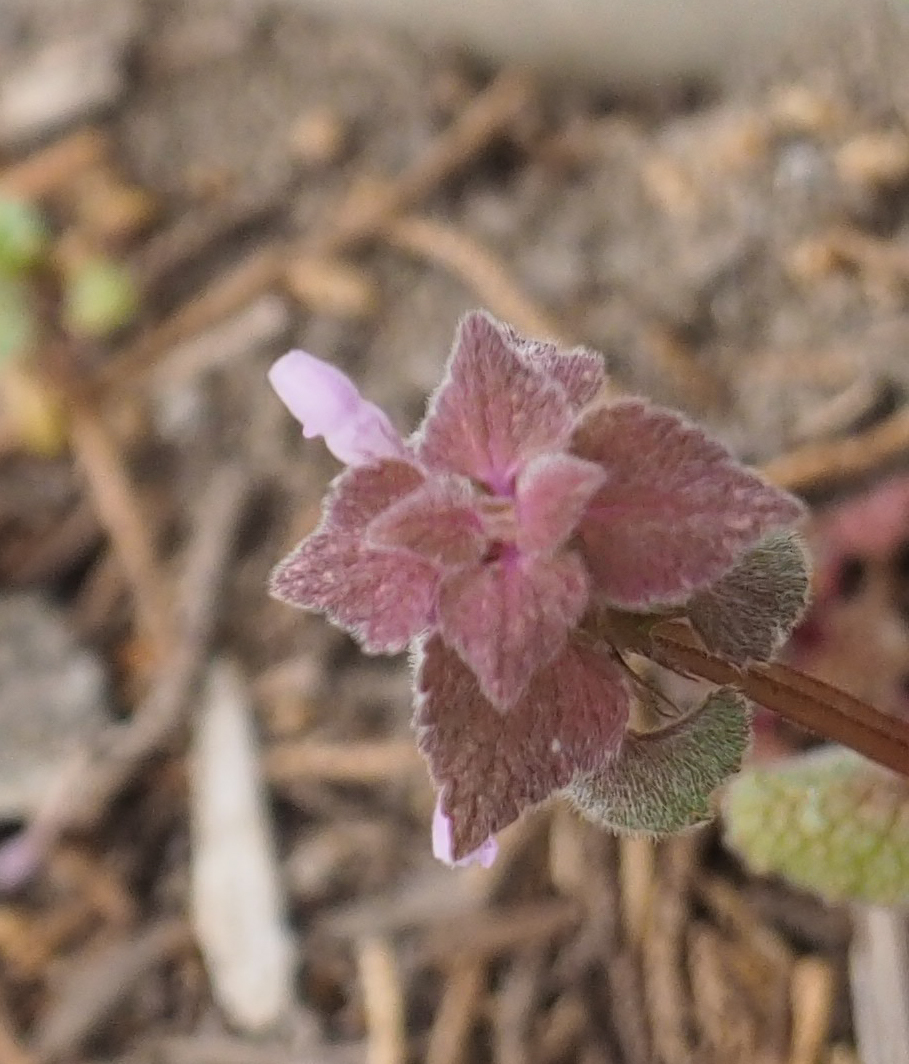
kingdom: Plantae
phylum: Tracheophyta
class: Magnoliopsida
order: Lamiales
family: Lamiaceae
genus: Lamium
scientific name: Lamium purpureum
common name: Red dead-nettle
